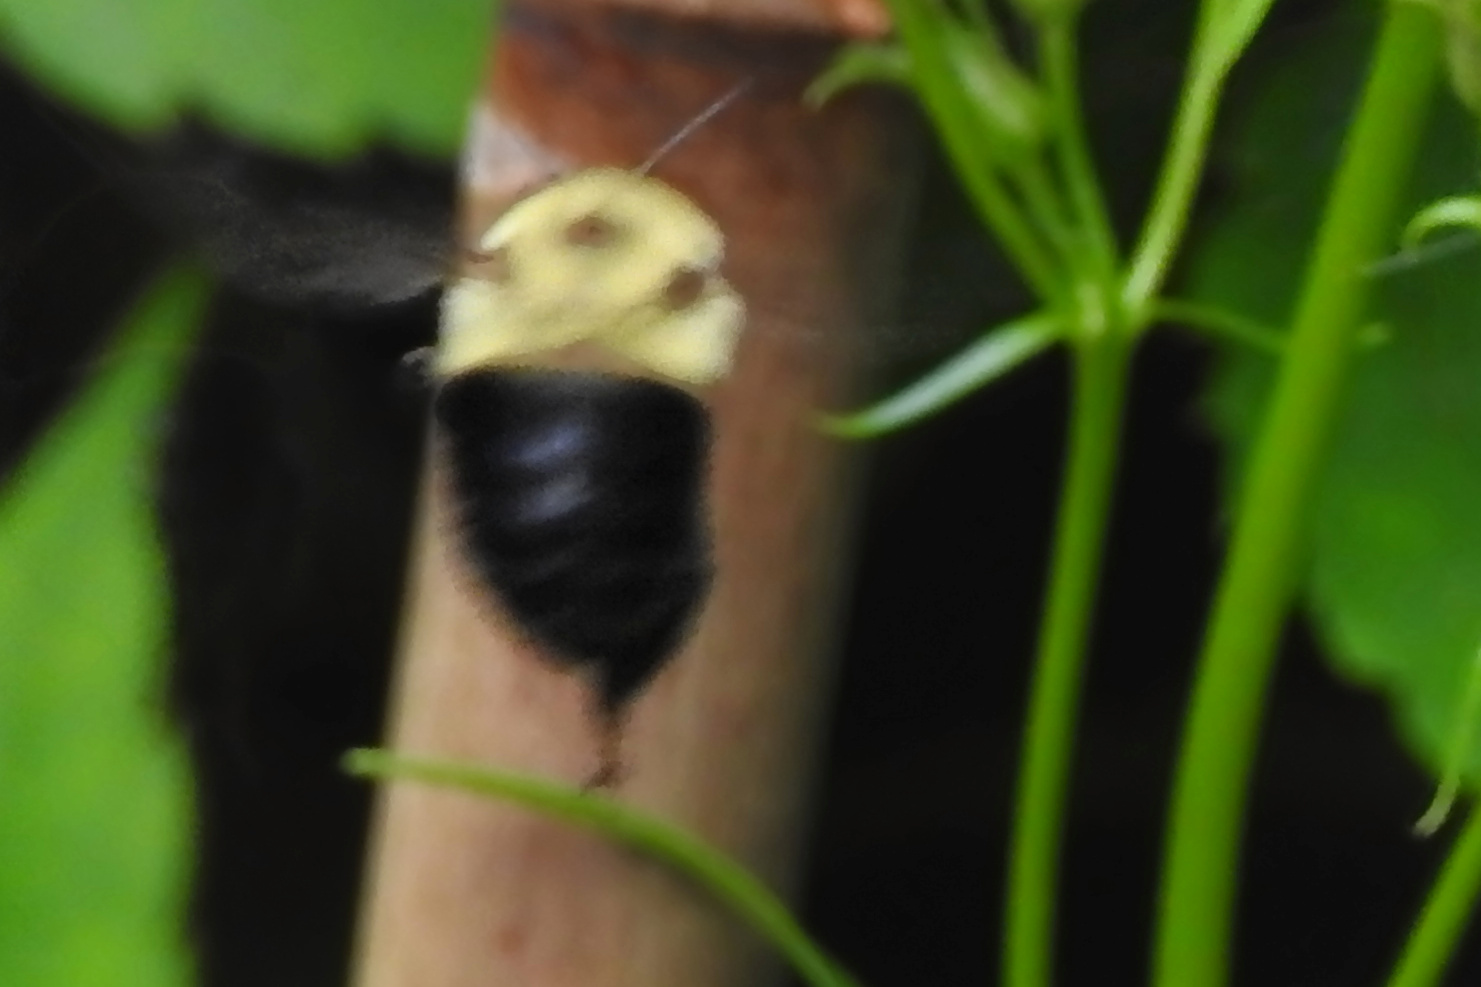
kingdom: Animalia
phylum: Arthropoda
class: Insecta
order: Hymenoptera
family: Apidae
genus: Bombus
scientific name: Bombus bimaculatus
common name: Two-spotted bumble bee
